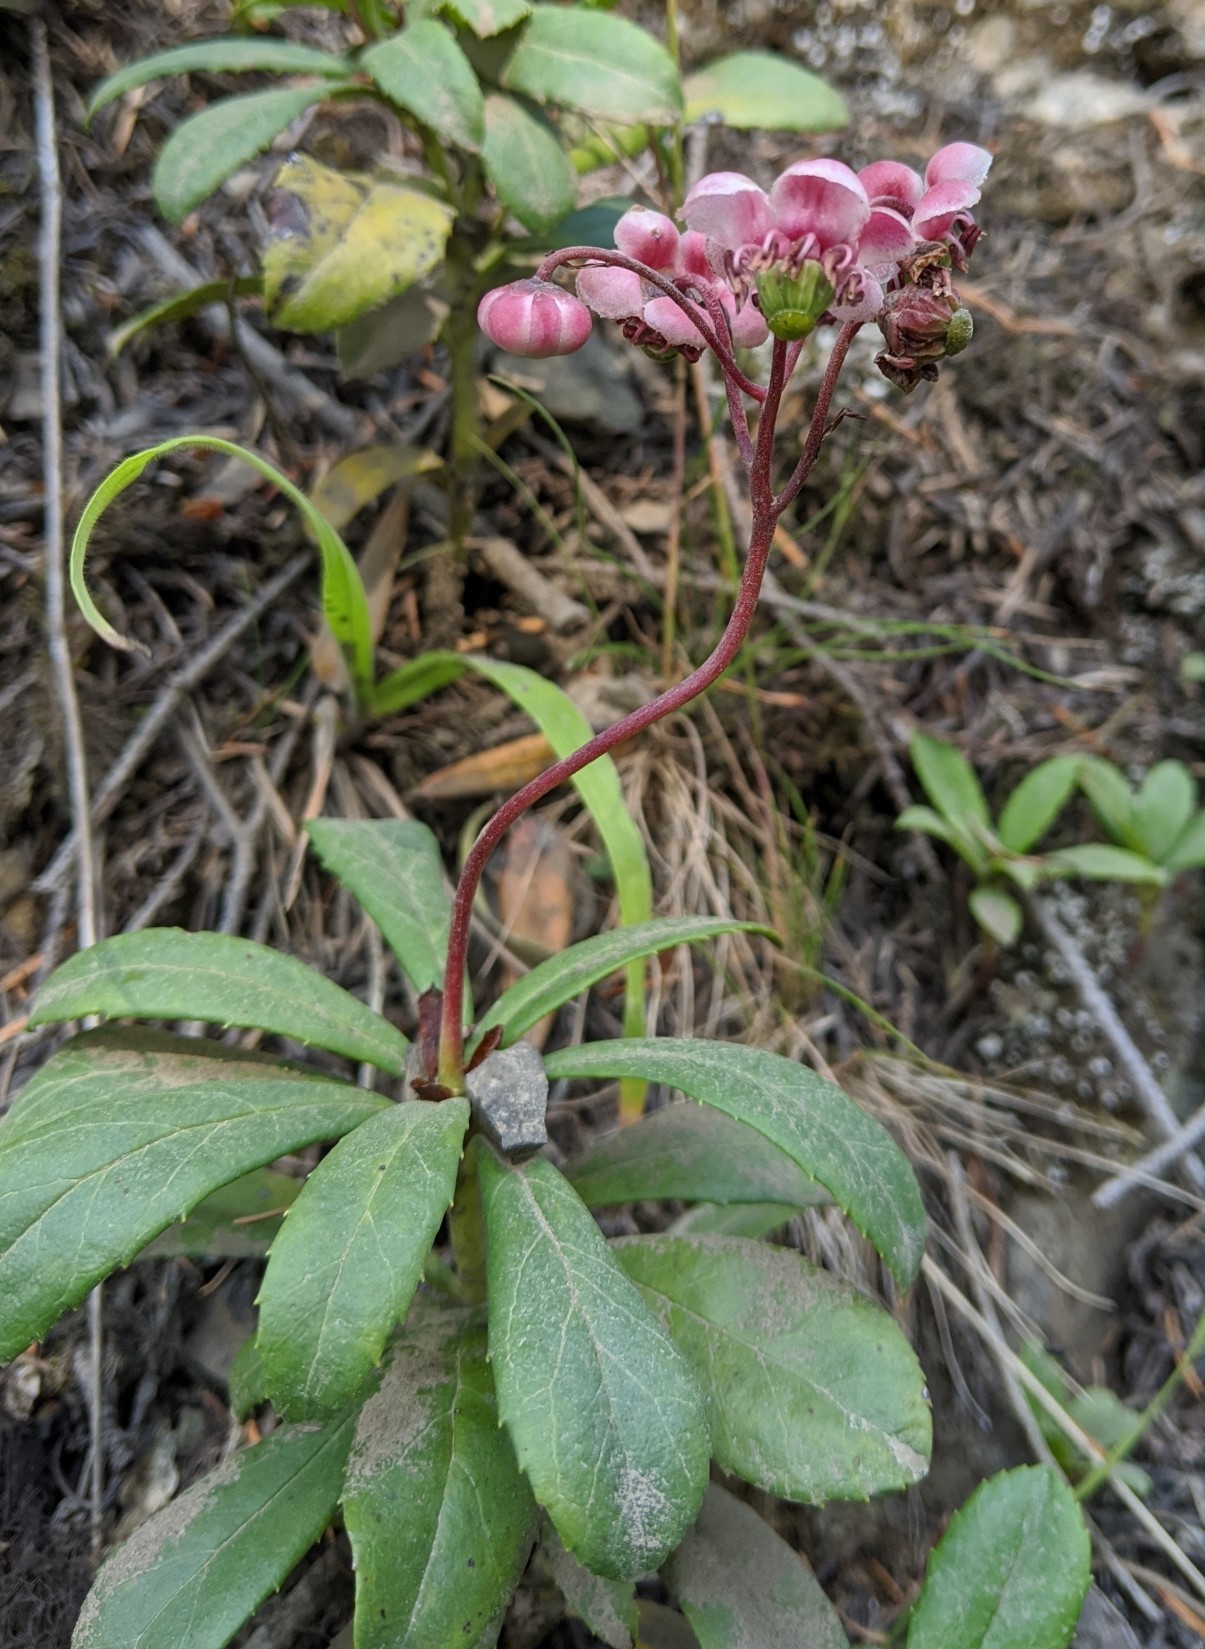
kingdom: Plantae
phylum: Tracheophyta
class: Magnoliopsida
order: Ericales
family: Ericaceae
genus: Chimaphila
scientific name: Chimaphila umbellata
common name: Pipsissewa
